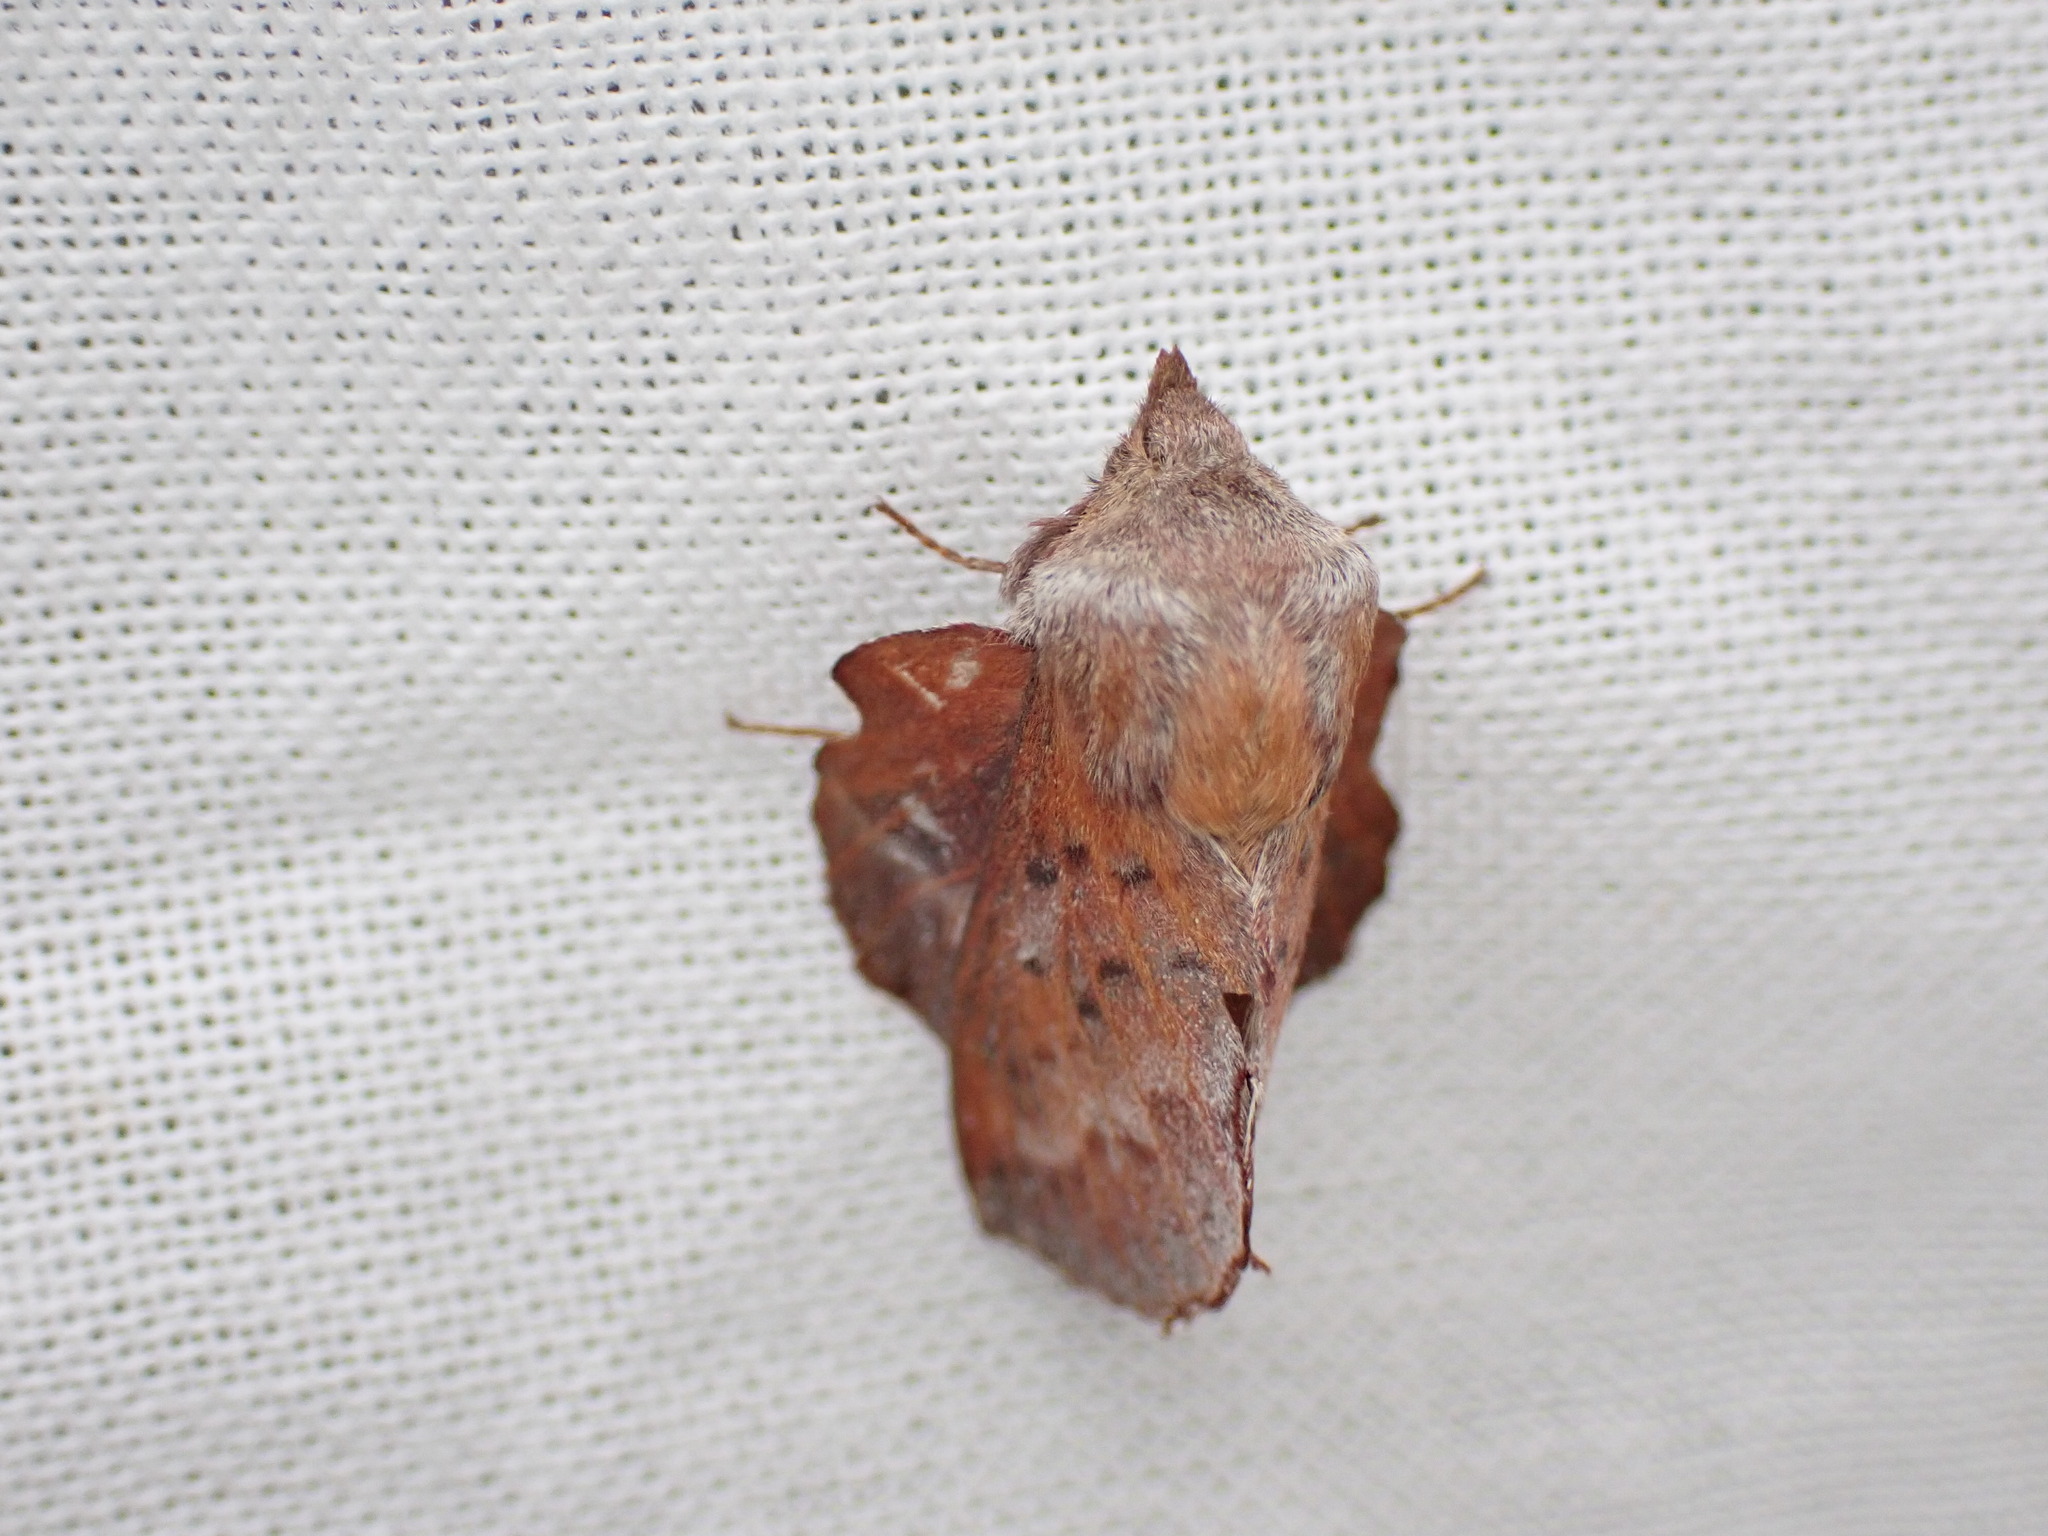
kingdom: Animalia
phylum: Arthropoda
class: Insecta
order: Lepidoptera
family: Lasiocampidae
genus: Phyllodesma
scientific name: Phyllodesma americana
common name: American lappet moth
